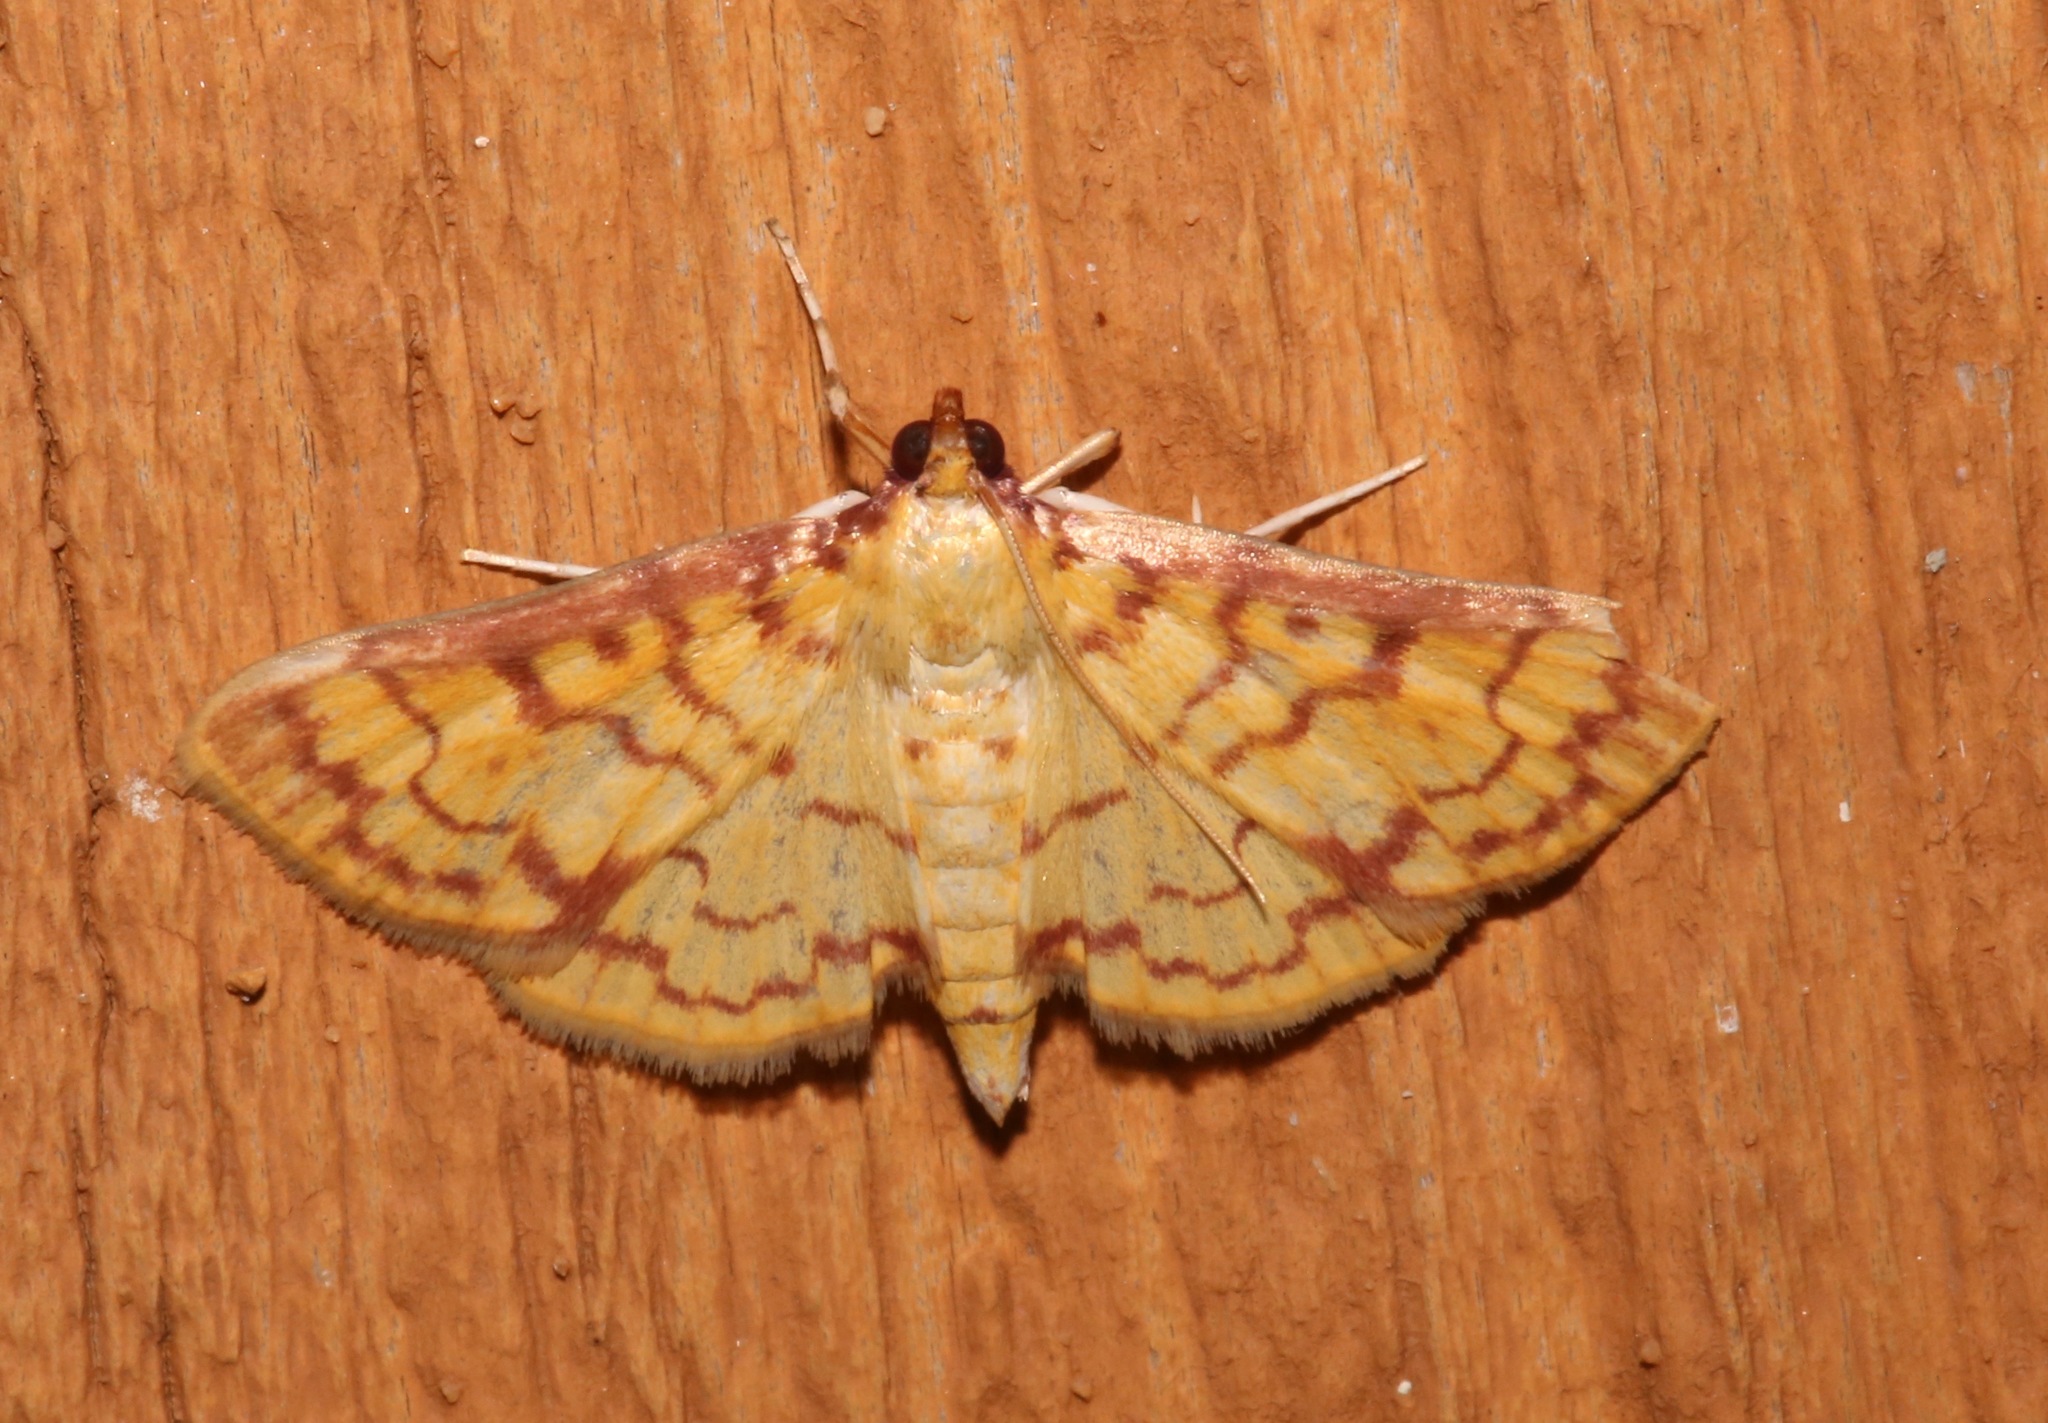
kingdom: Animalia
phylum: Arthropoda
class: Insecta
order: Lepidoptera
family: Crambidae
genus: Polygrammodes
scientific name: Polygrammodes flavidalis
